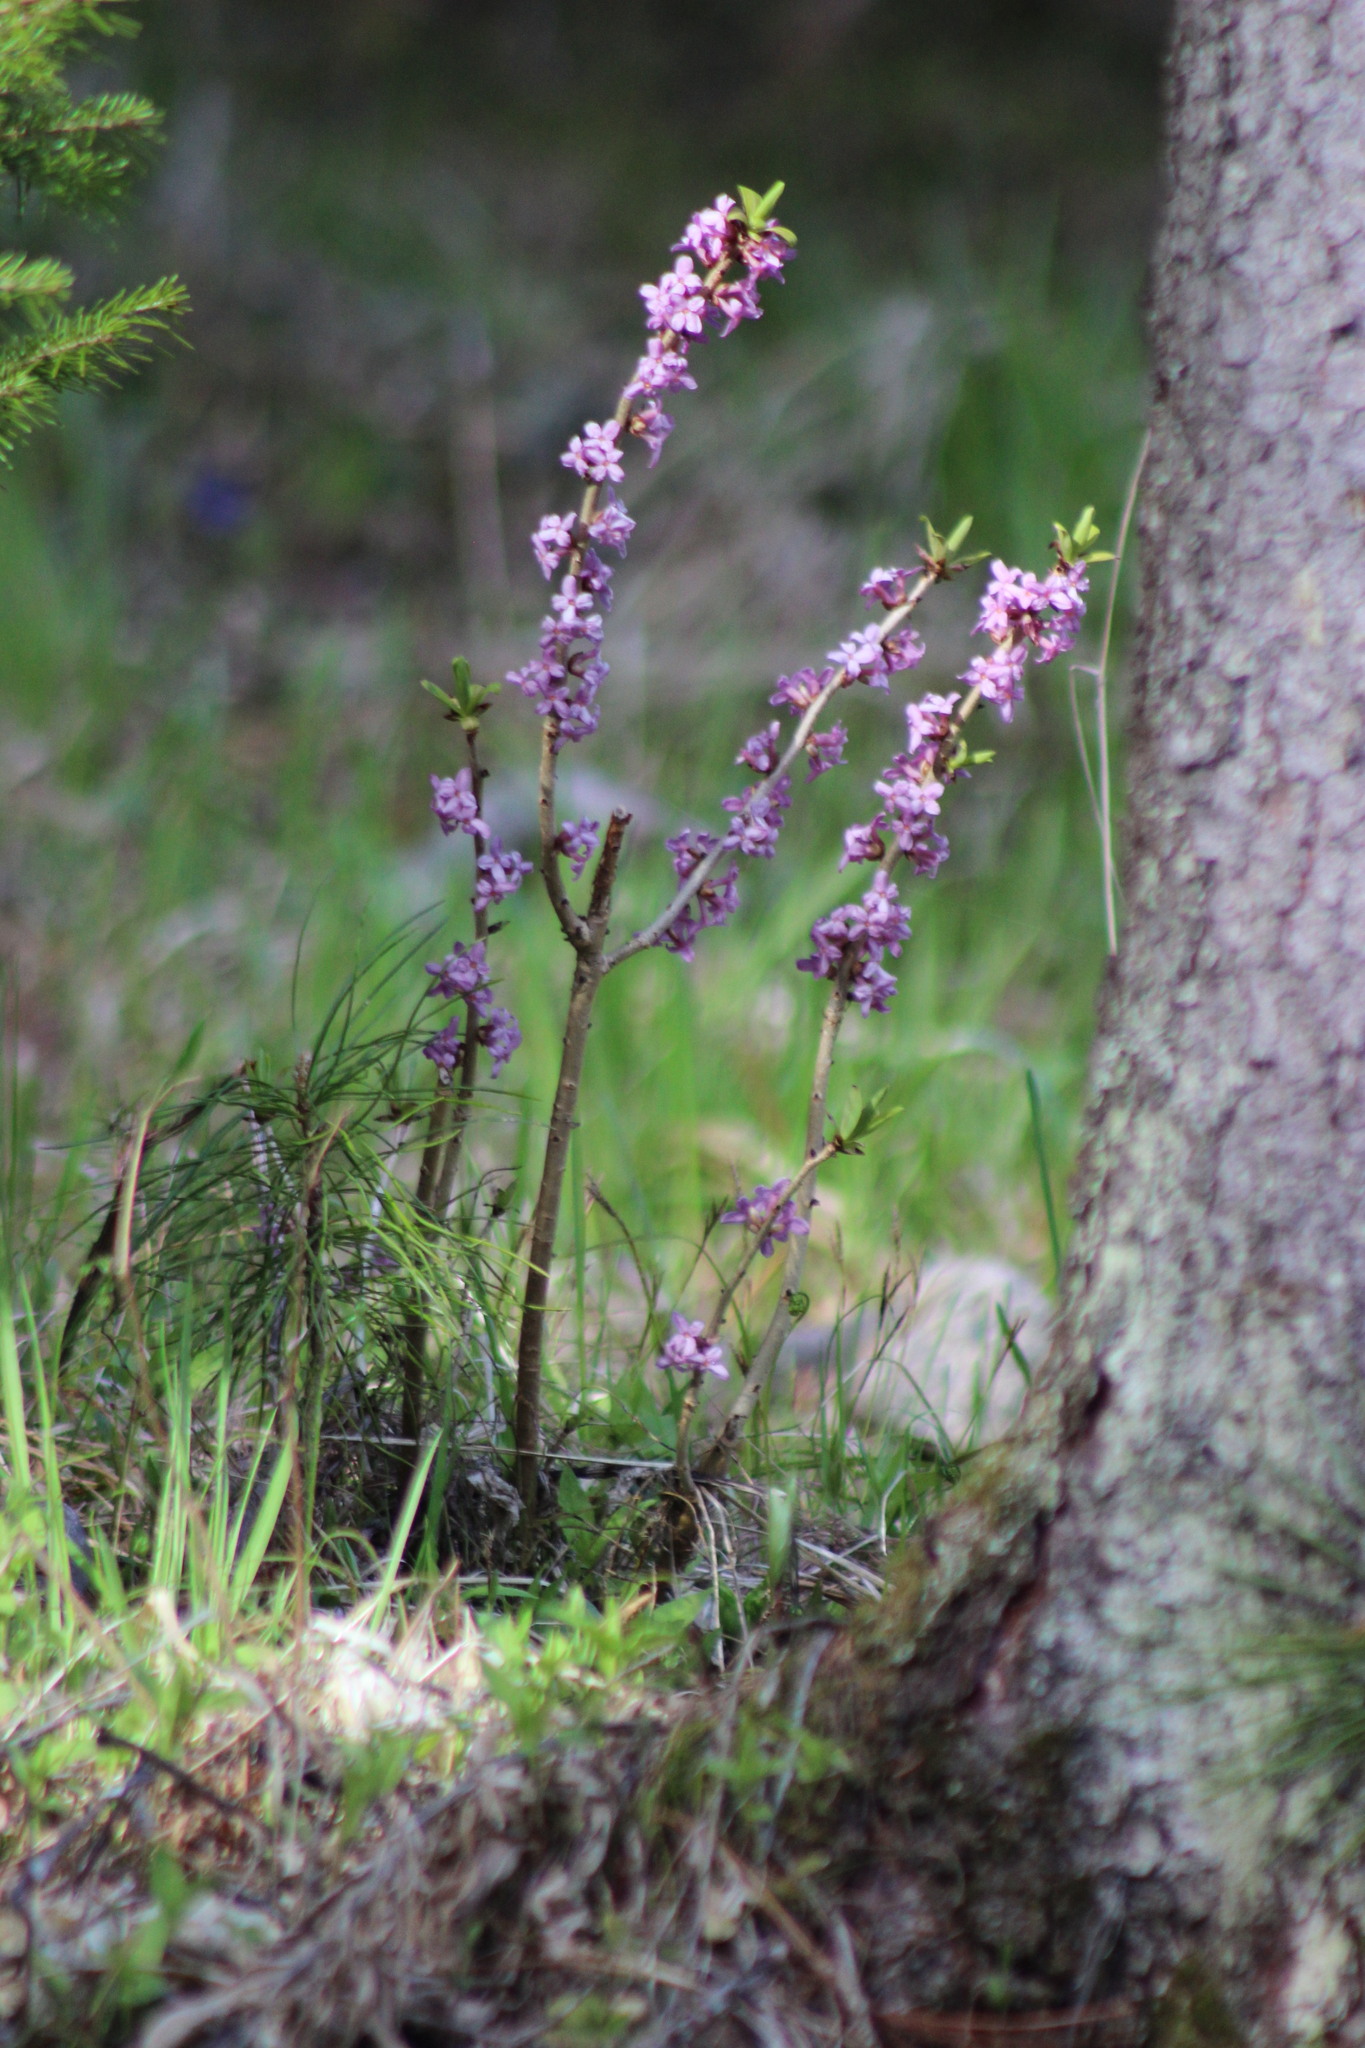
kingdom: Plantae
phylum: Tracheophyta
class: Magnoliopsida
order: Malvales
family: Thymelaeaceae
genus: Daphne
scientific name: Daphne mezereum
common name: Mezereon
